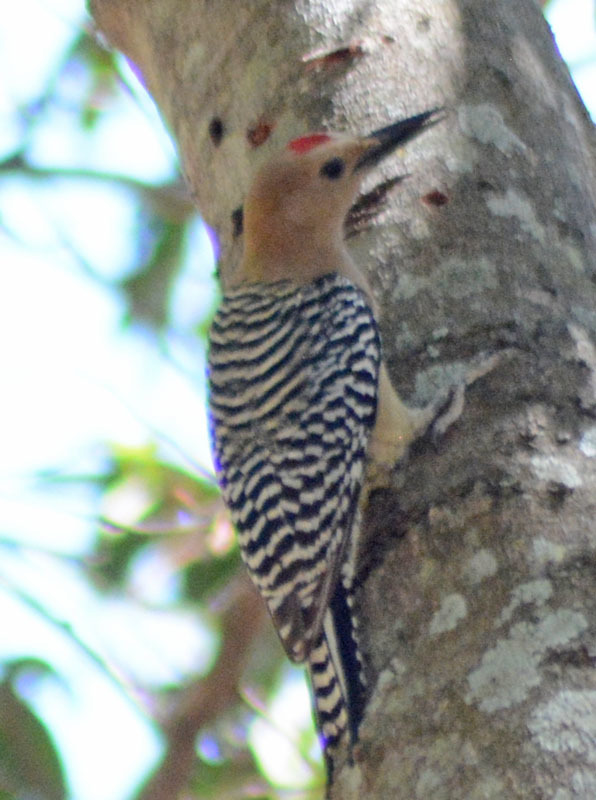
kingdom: Animalia
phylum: Chordata
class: Aves
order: Piciformes
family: Picidae
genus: Melanerpes
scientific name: Melanerpes uropygialis
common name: Gila woodpecker
